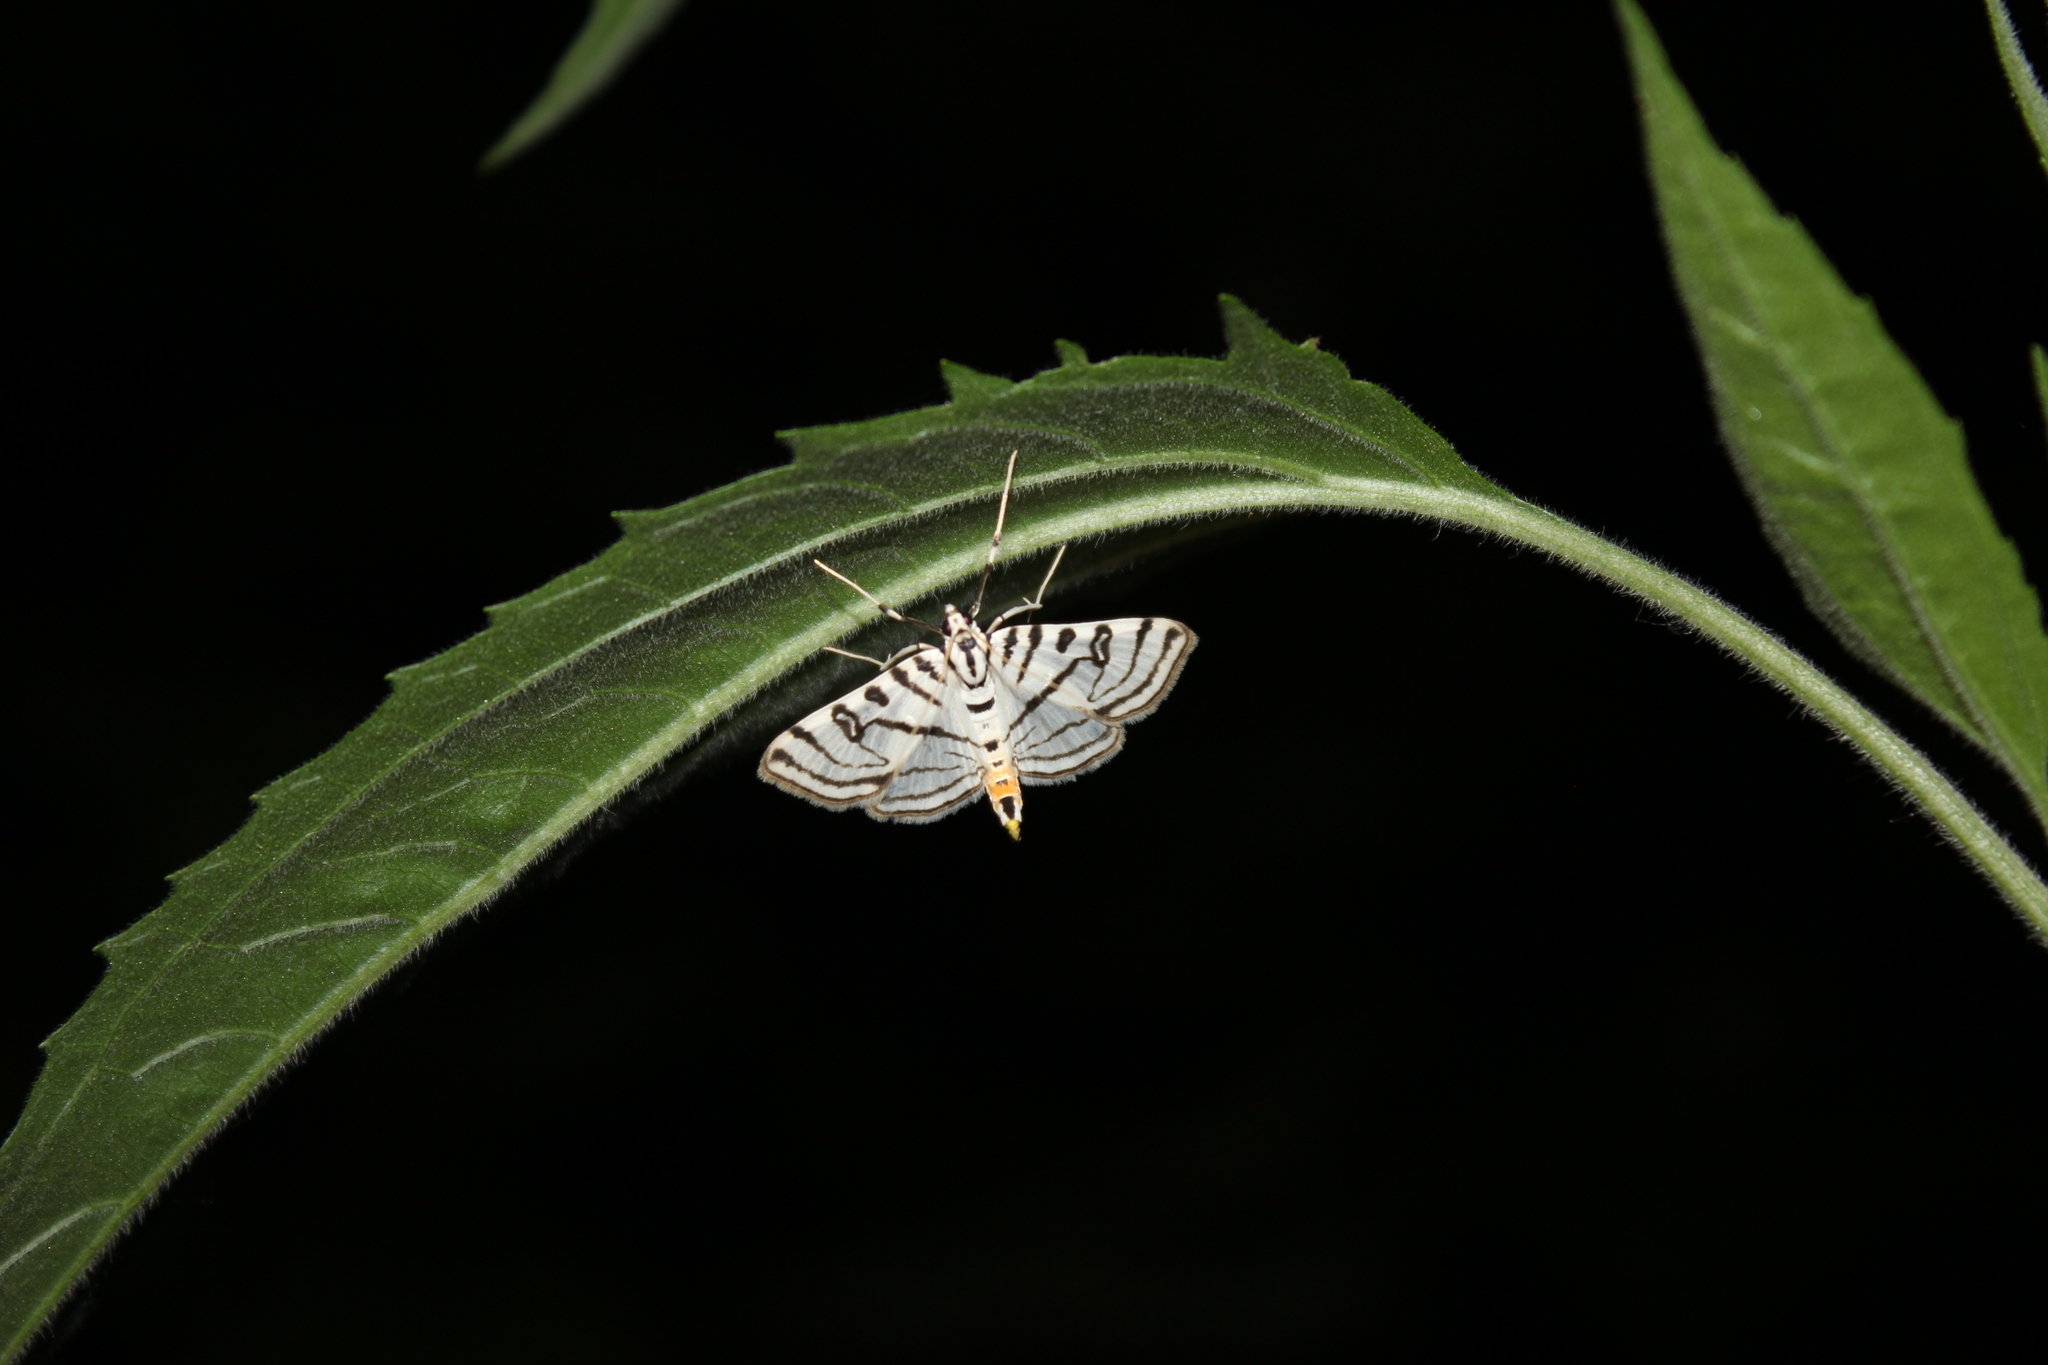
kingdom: Animalia
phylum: Arthropoda
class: Insecta
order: Lepidoptera
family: Crambidae
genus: Conchylodes
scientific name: Conchylodes ovulalis
